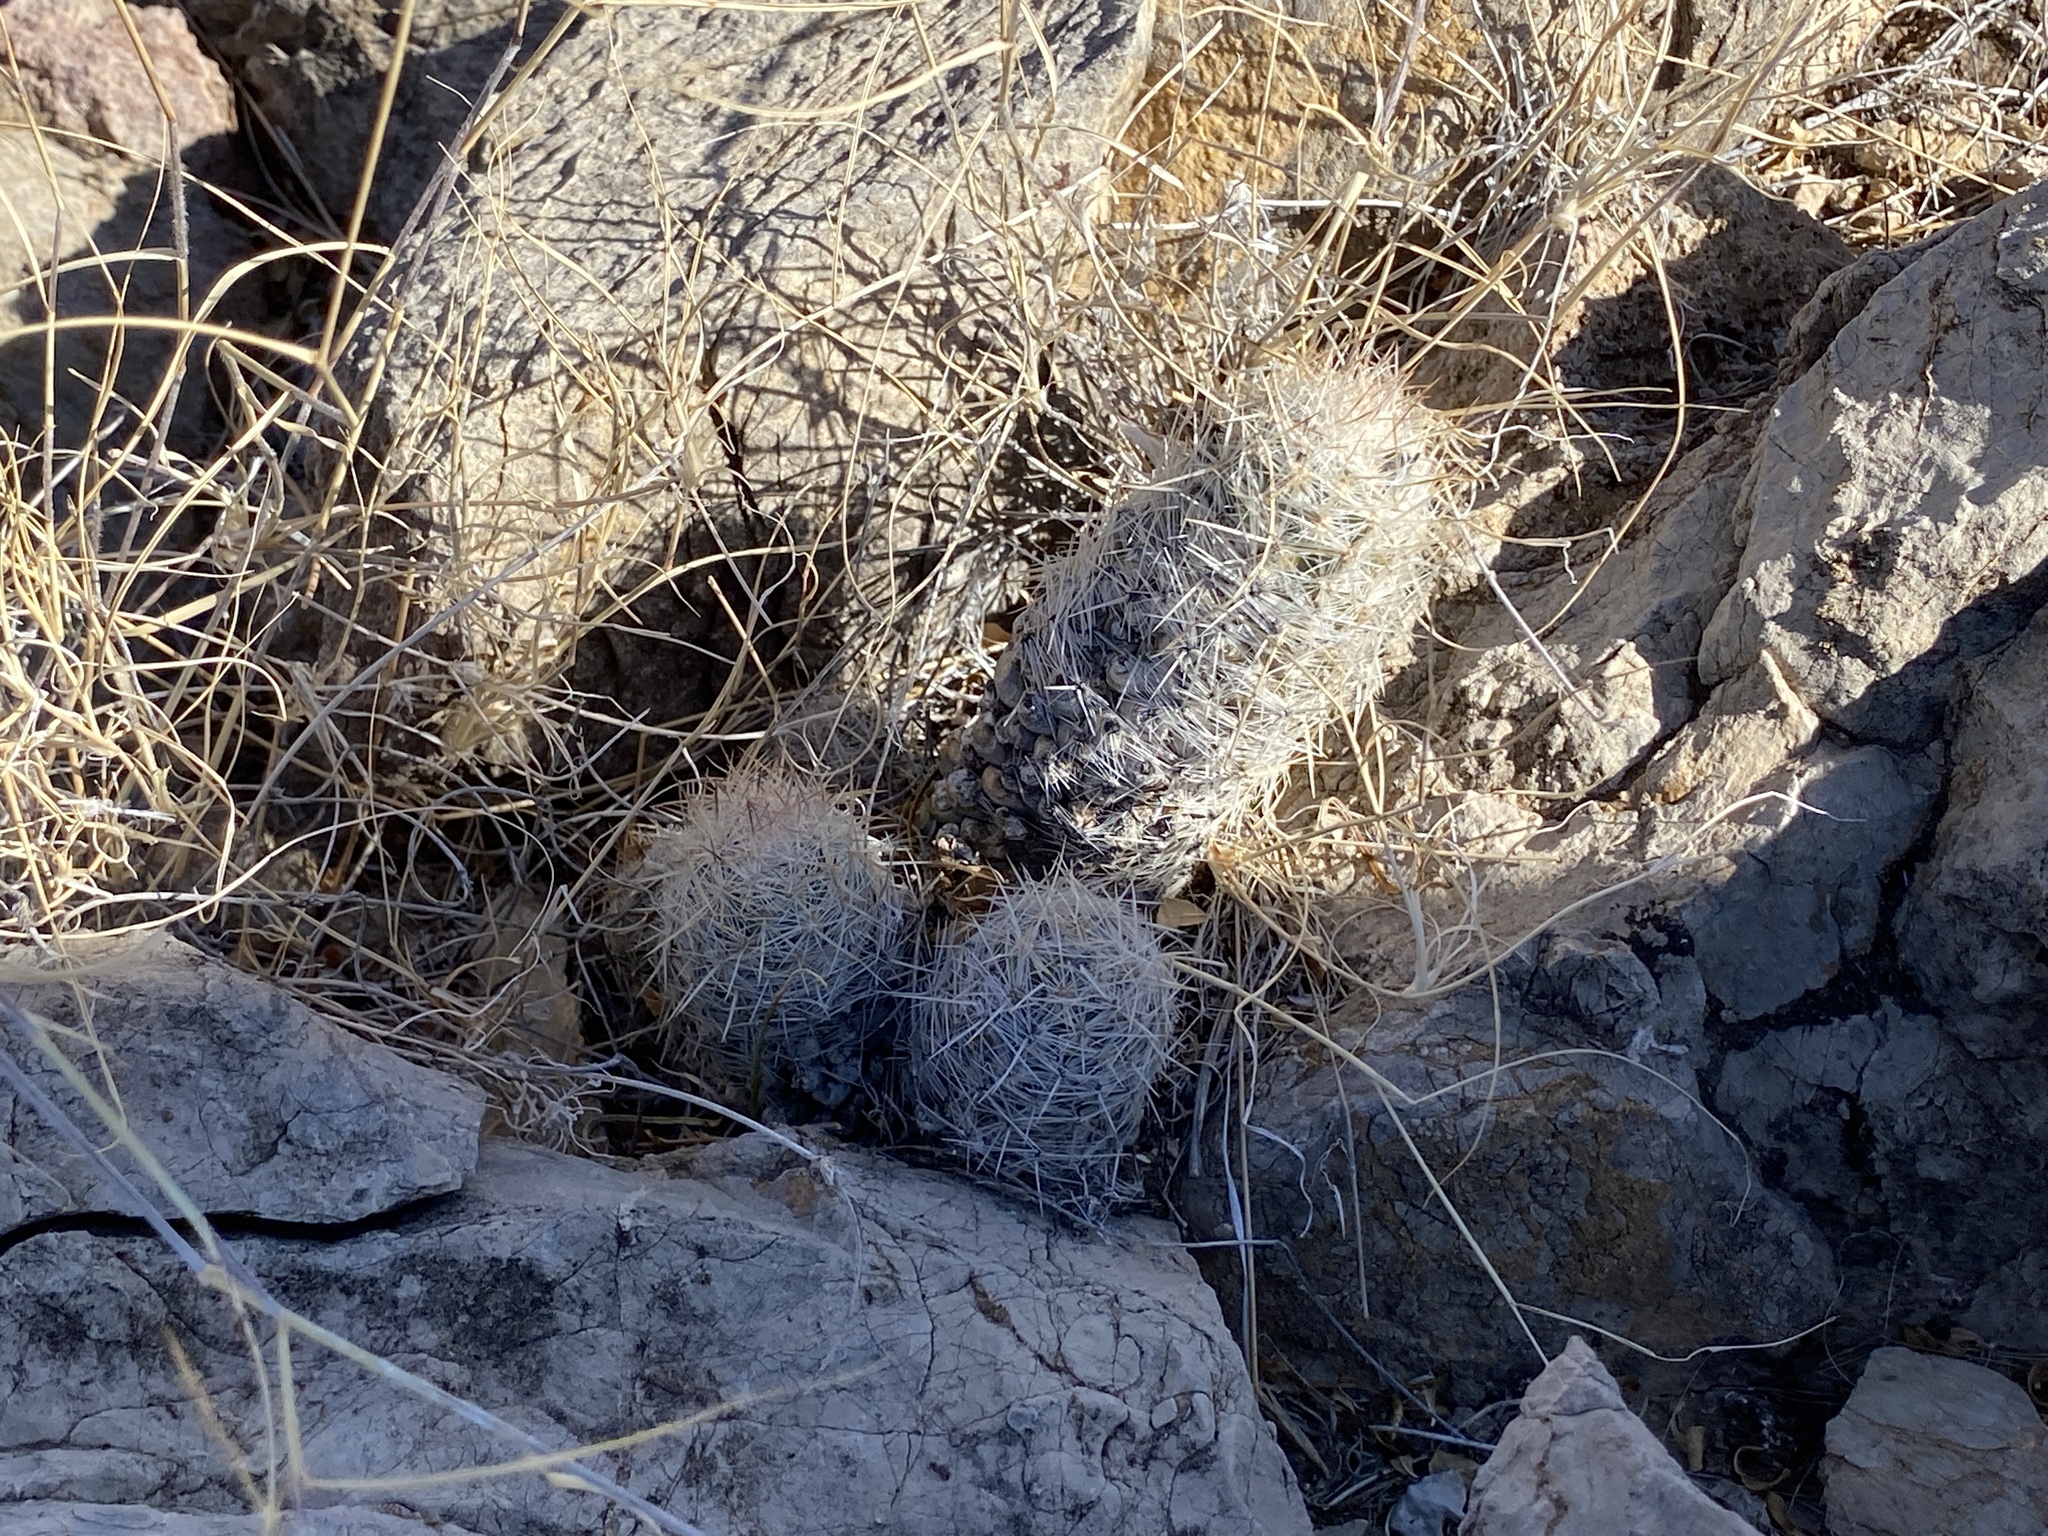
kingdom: Plantae
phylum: Tracheophyta
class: Magnoliopsida
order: Caryophyllales
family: Cactaceae
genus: Pelecyphora
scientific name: Pelecyphora tuberculosa
